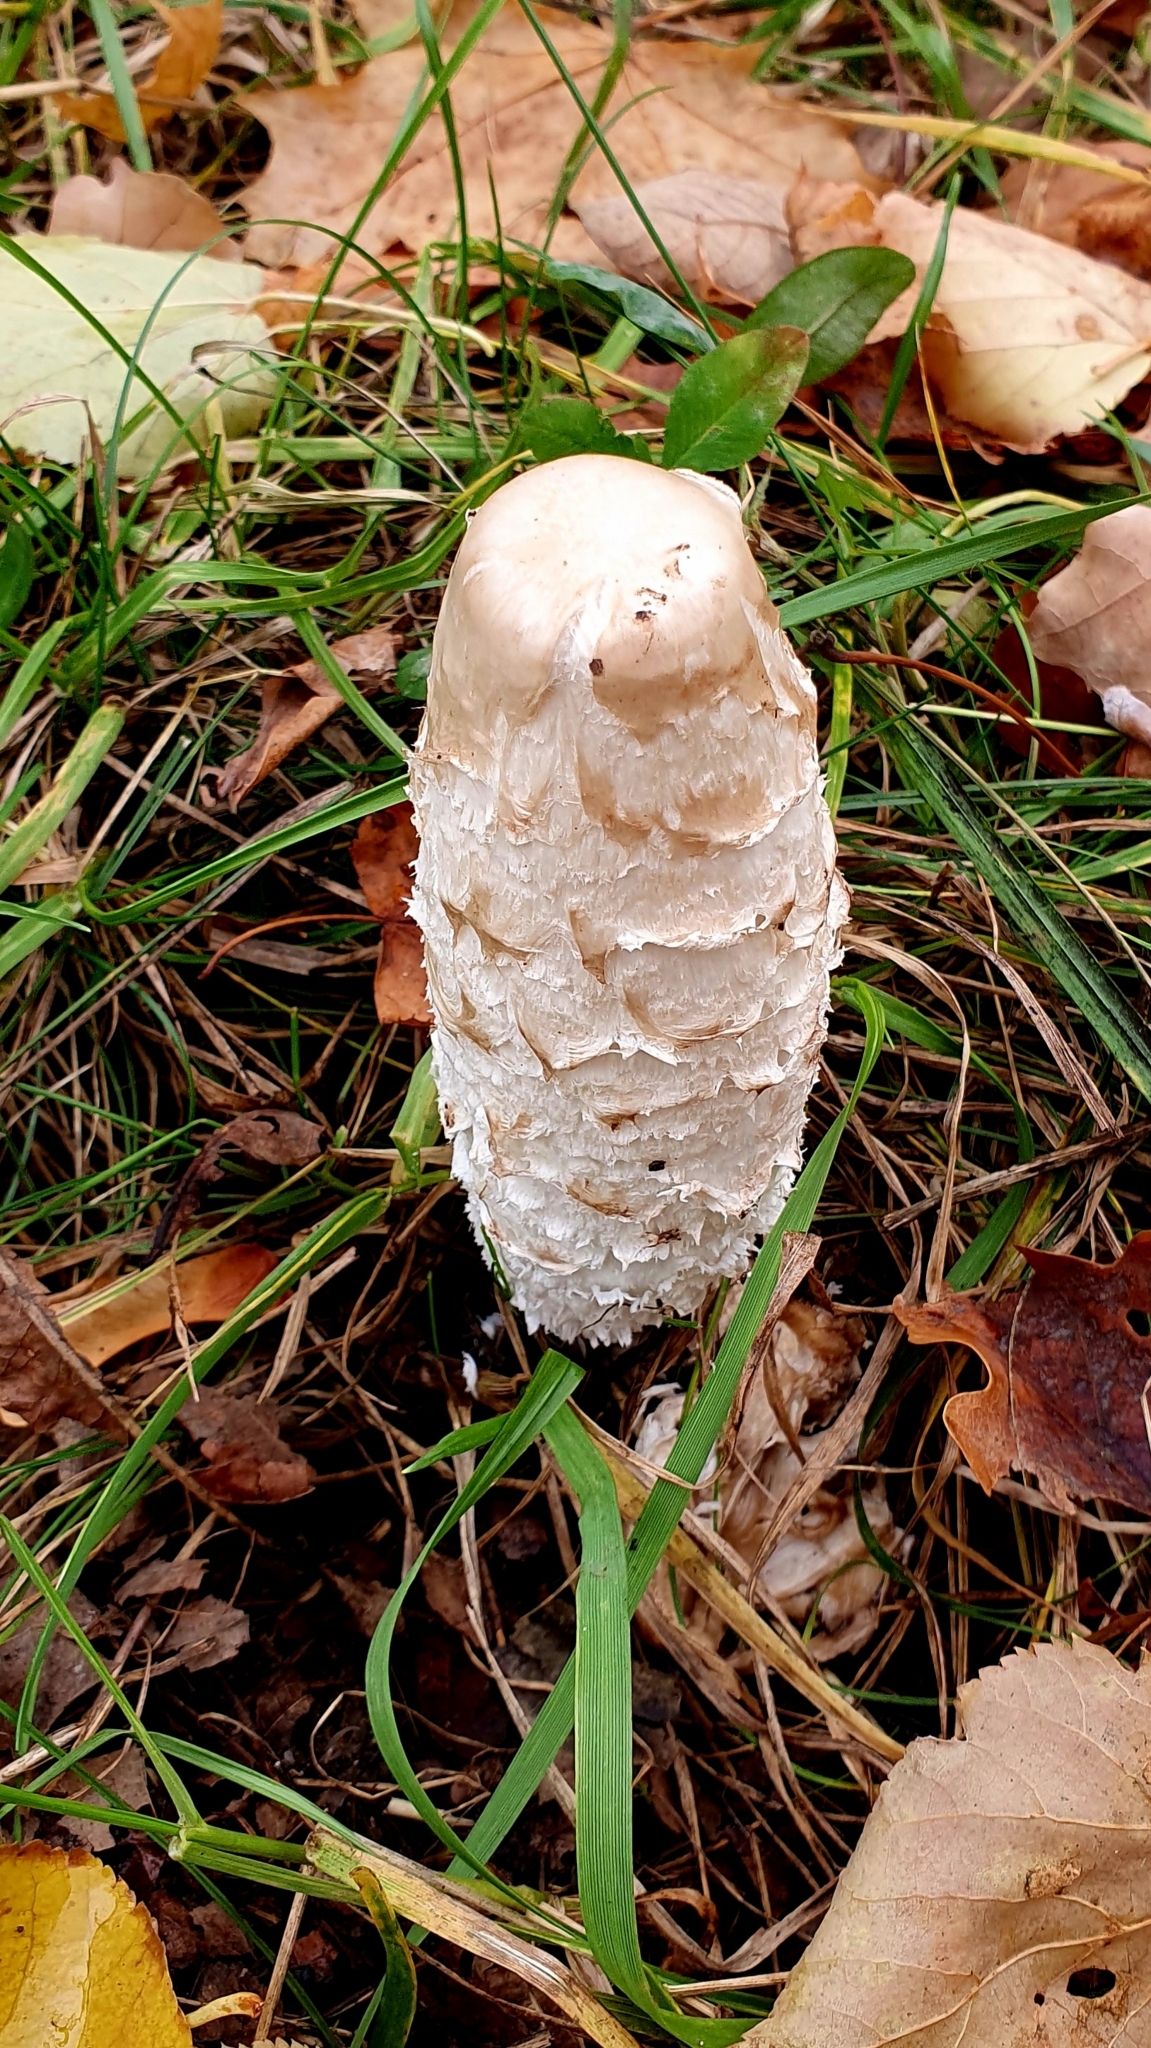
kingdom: Fungi
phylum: Basidiomycota
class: Agaricomycetes
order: Agaricales
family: Agaricaceae
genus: Coprinus
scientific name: Coprinus comatus
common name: Lawyer's wig
